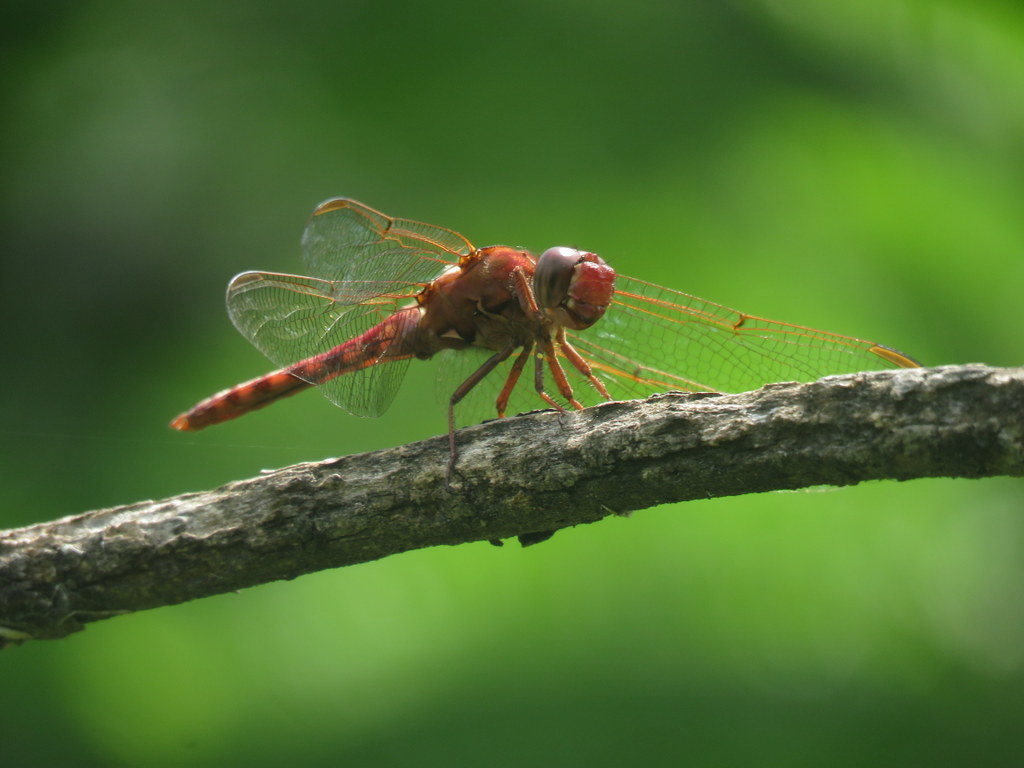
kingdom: Animalia
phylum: Arthropoda
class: Insecta
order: Odonata
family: Libellulidae
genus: Orthemis
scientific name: Orthemis nodiplaga
